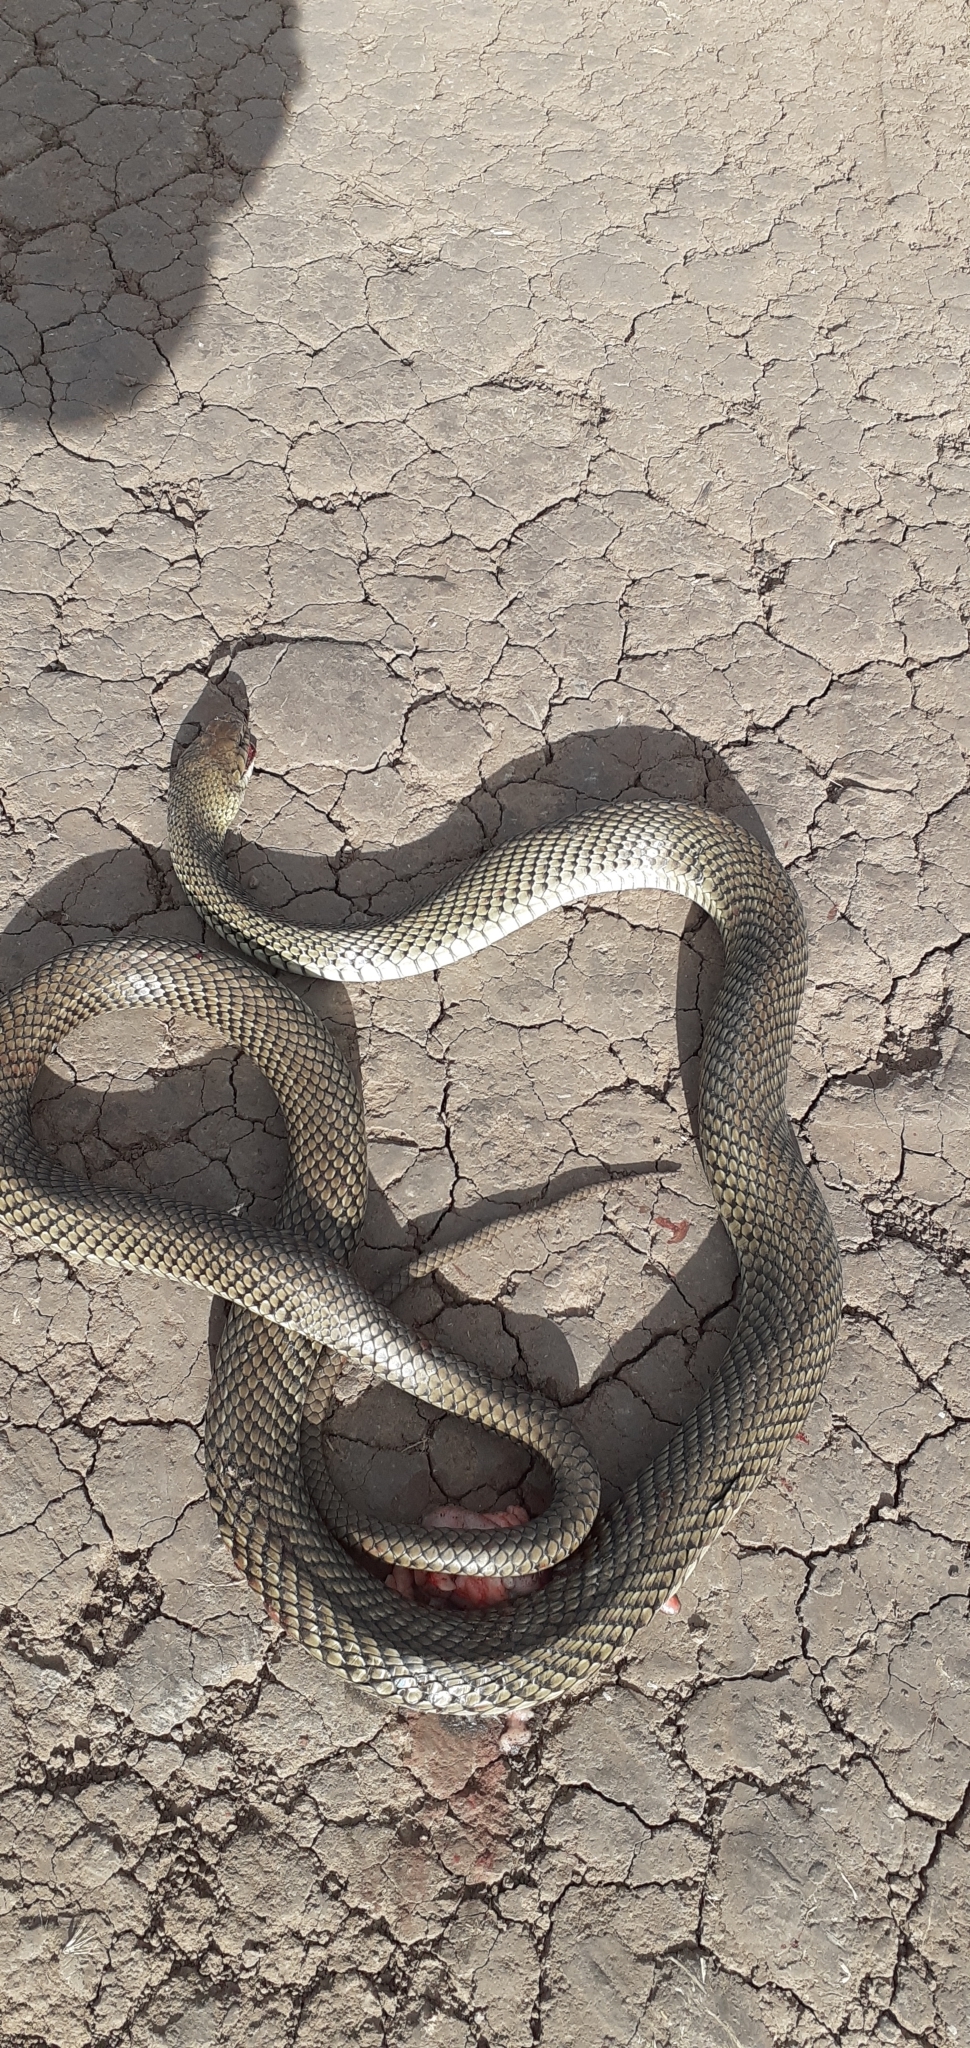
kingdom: Animalia
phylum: Chordata
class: Squamata
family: Colubridae
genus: Philodryas
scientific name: Philodryas patagoniensis
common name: Patagonia green racer
